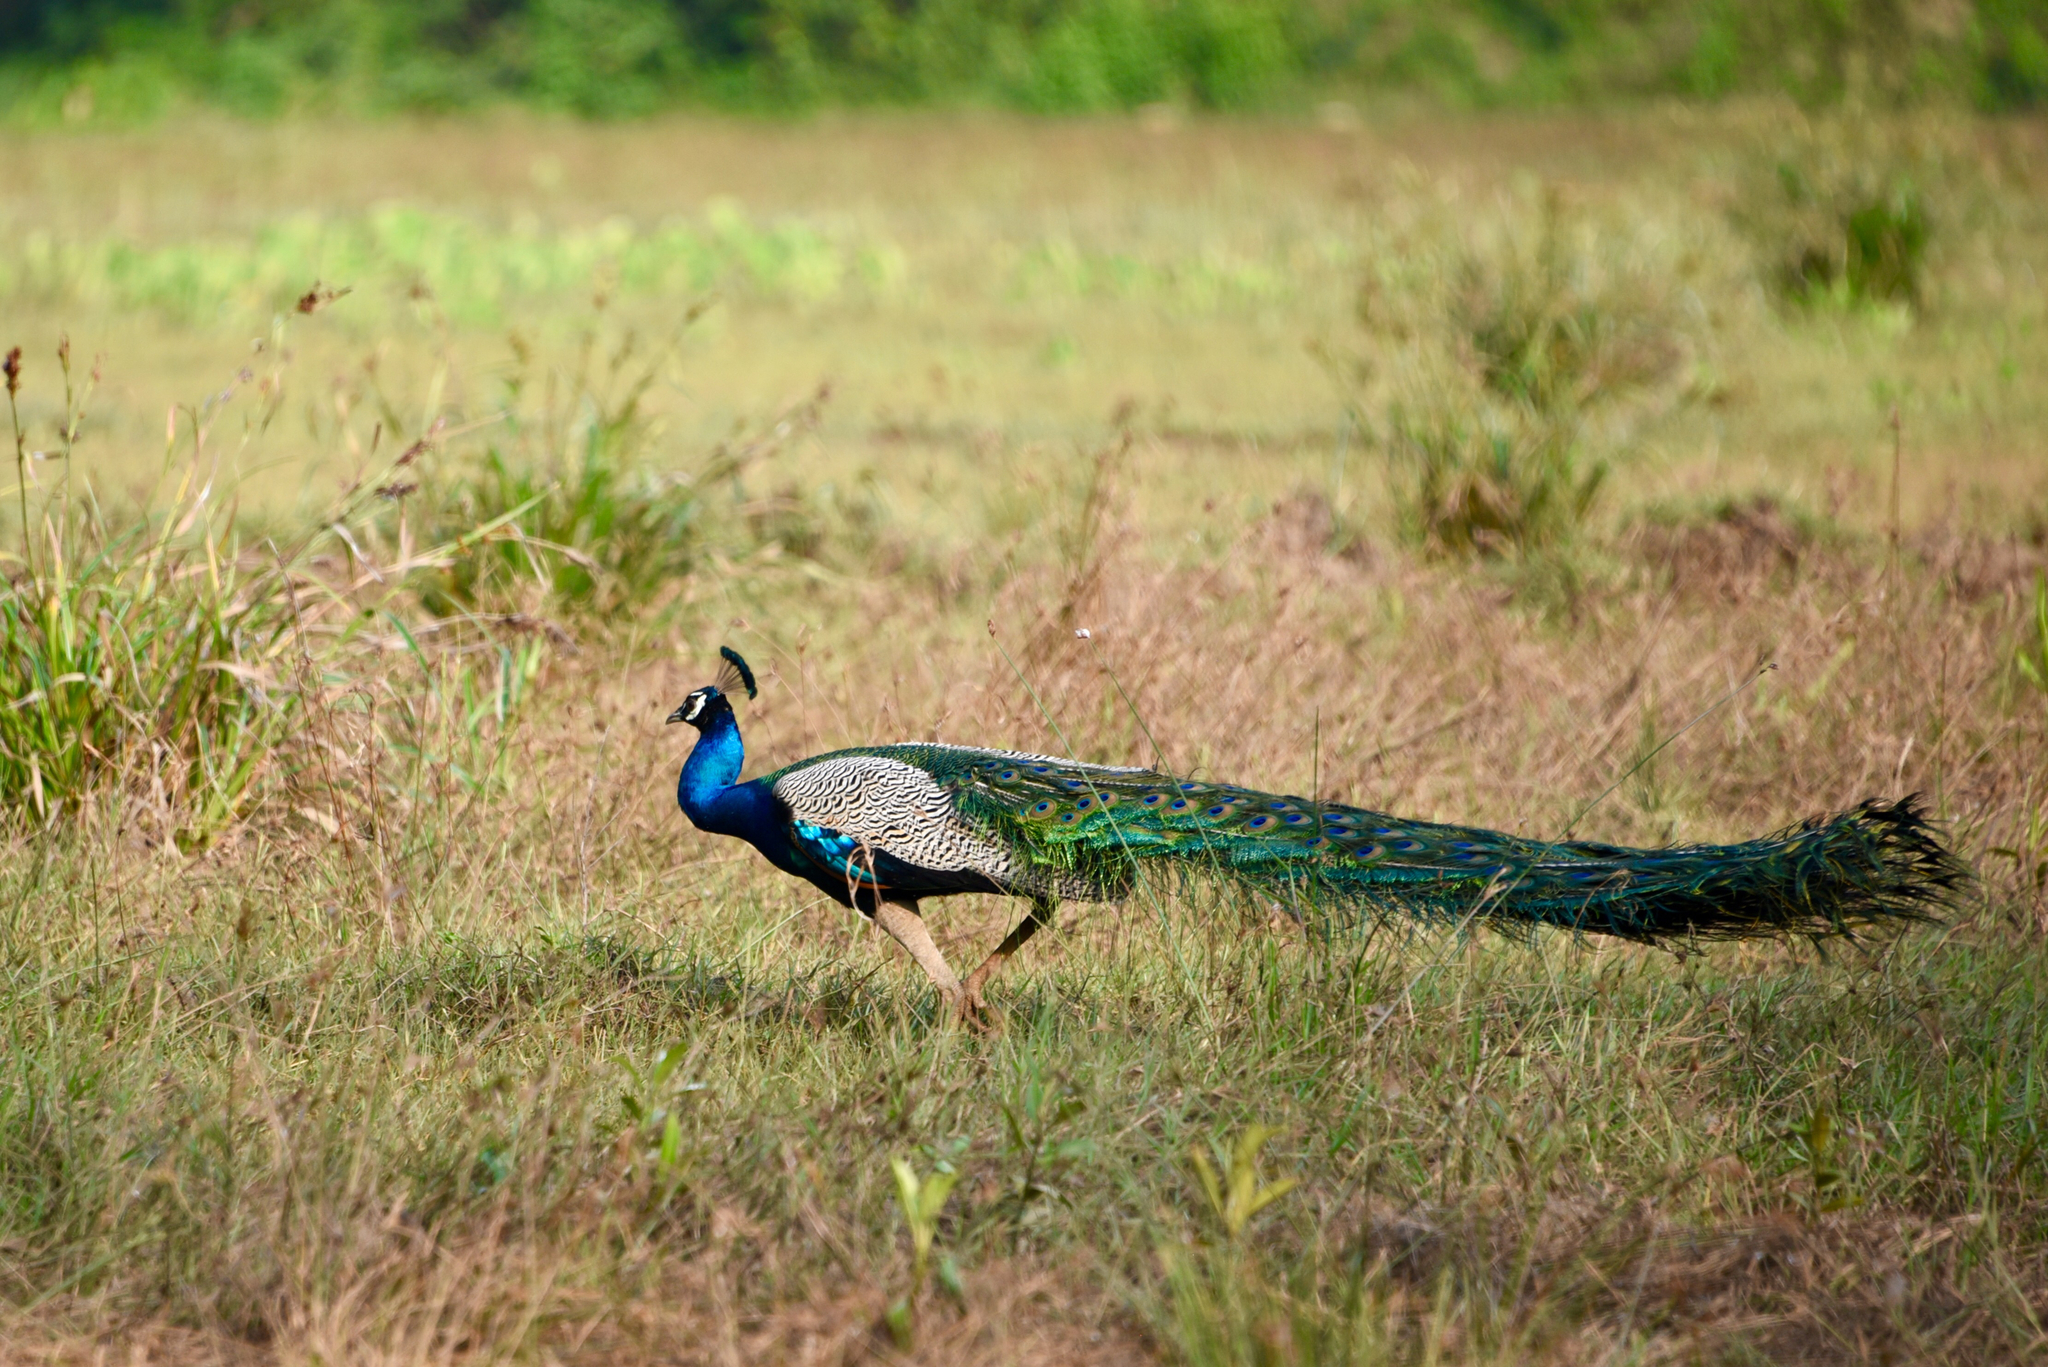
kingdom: Animalia
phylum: Chordata
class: Aves
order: Galliformes
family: Phasianidae
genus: Pavo
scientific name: Pavo cristatus
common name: Indian peafowl
